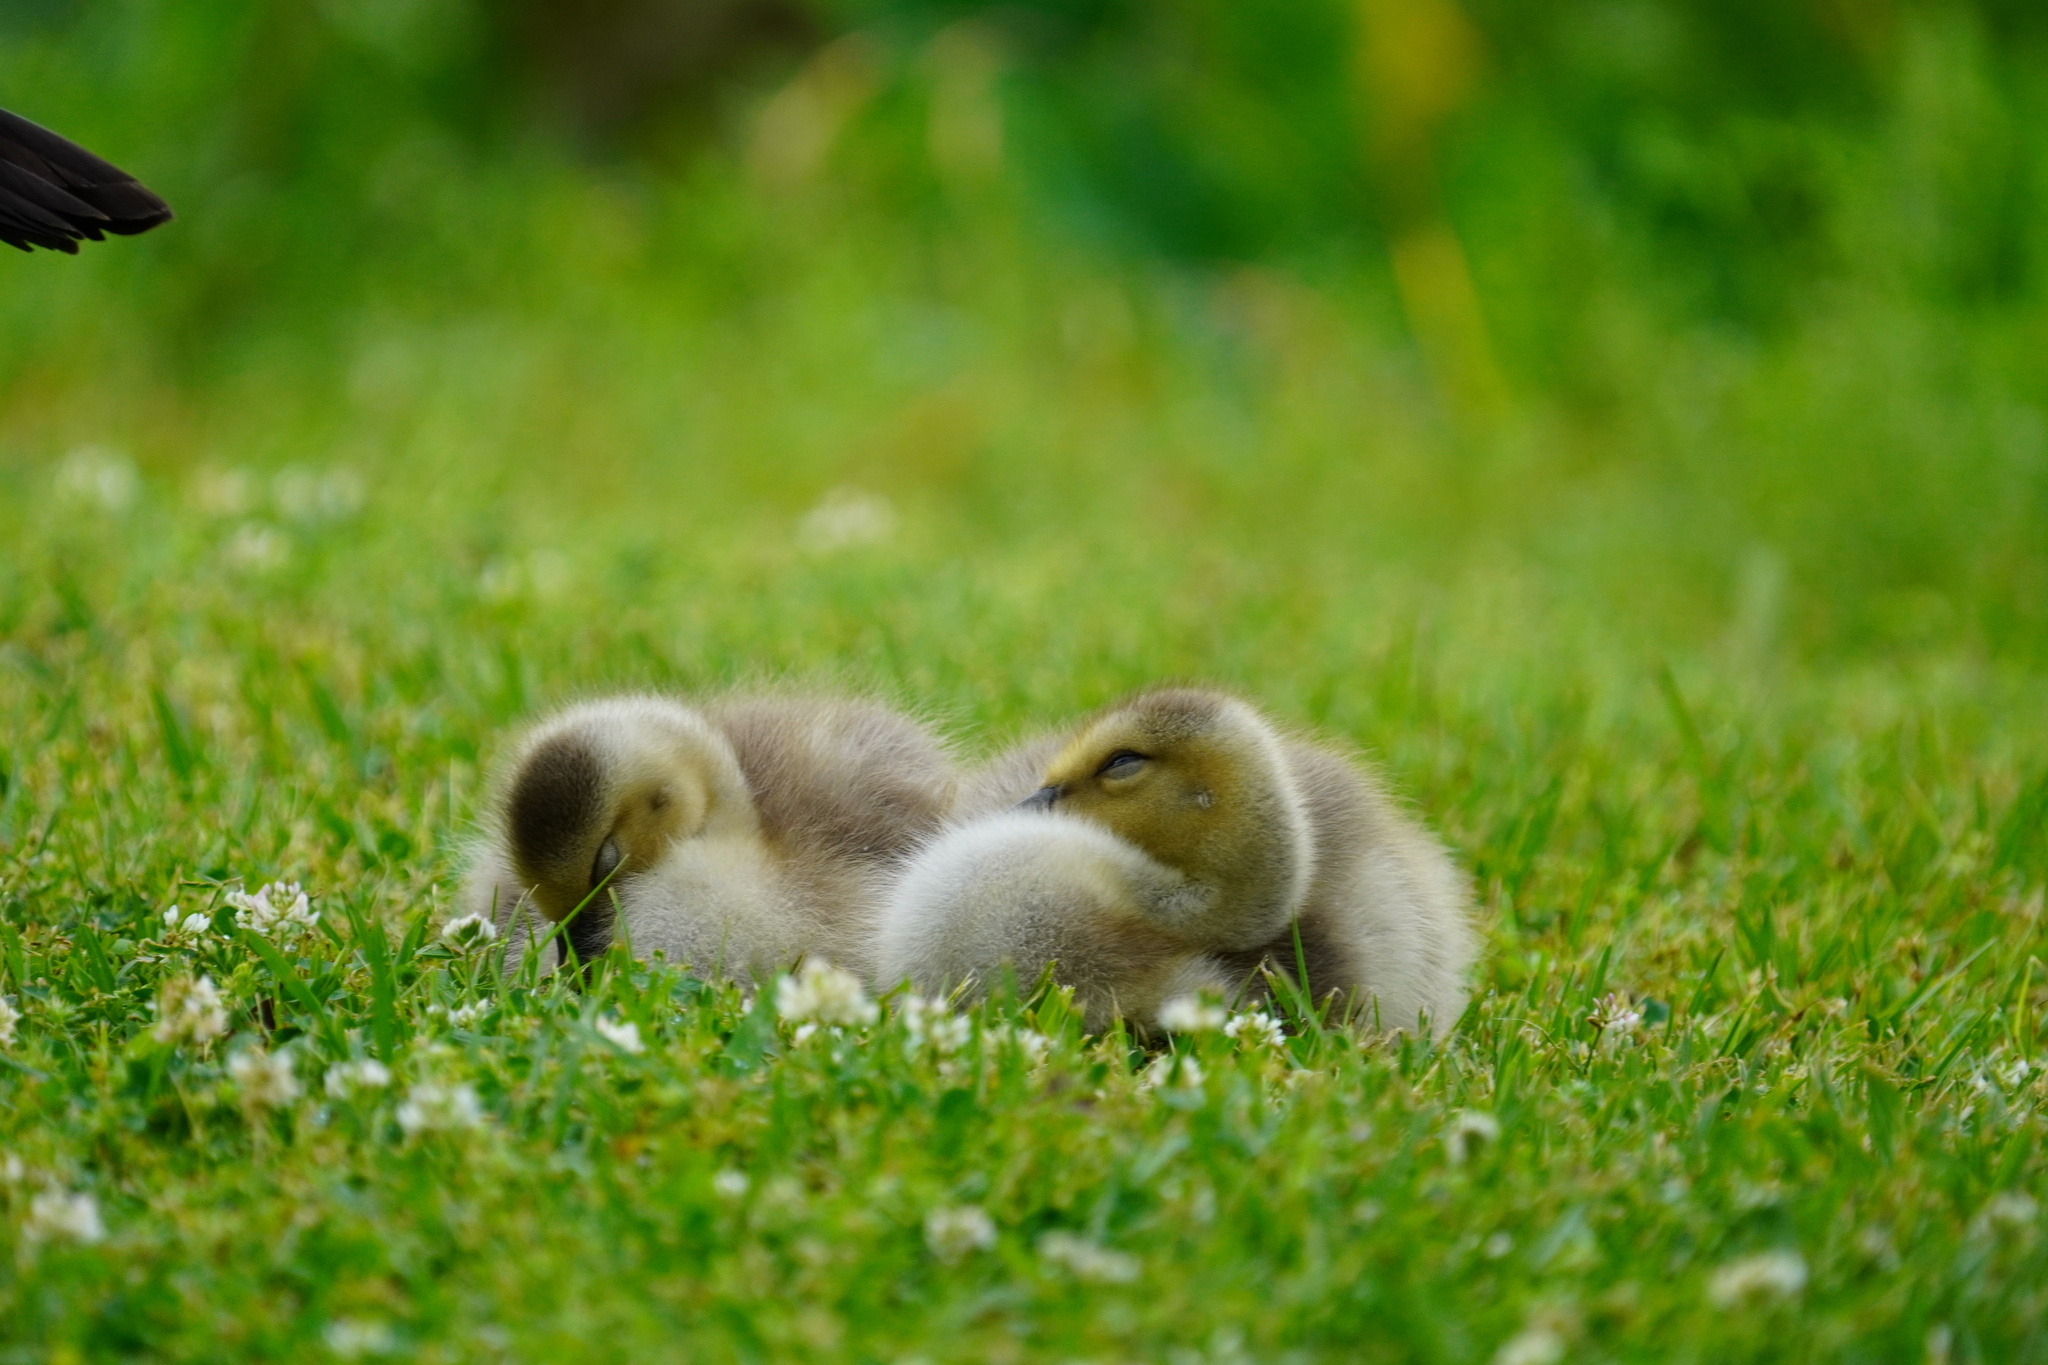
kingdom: Animalia
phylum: Chordata
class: Aves
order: Anseriformes
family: Anatidae
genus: Branta
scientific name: Branta canadensis
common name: Canada goose
